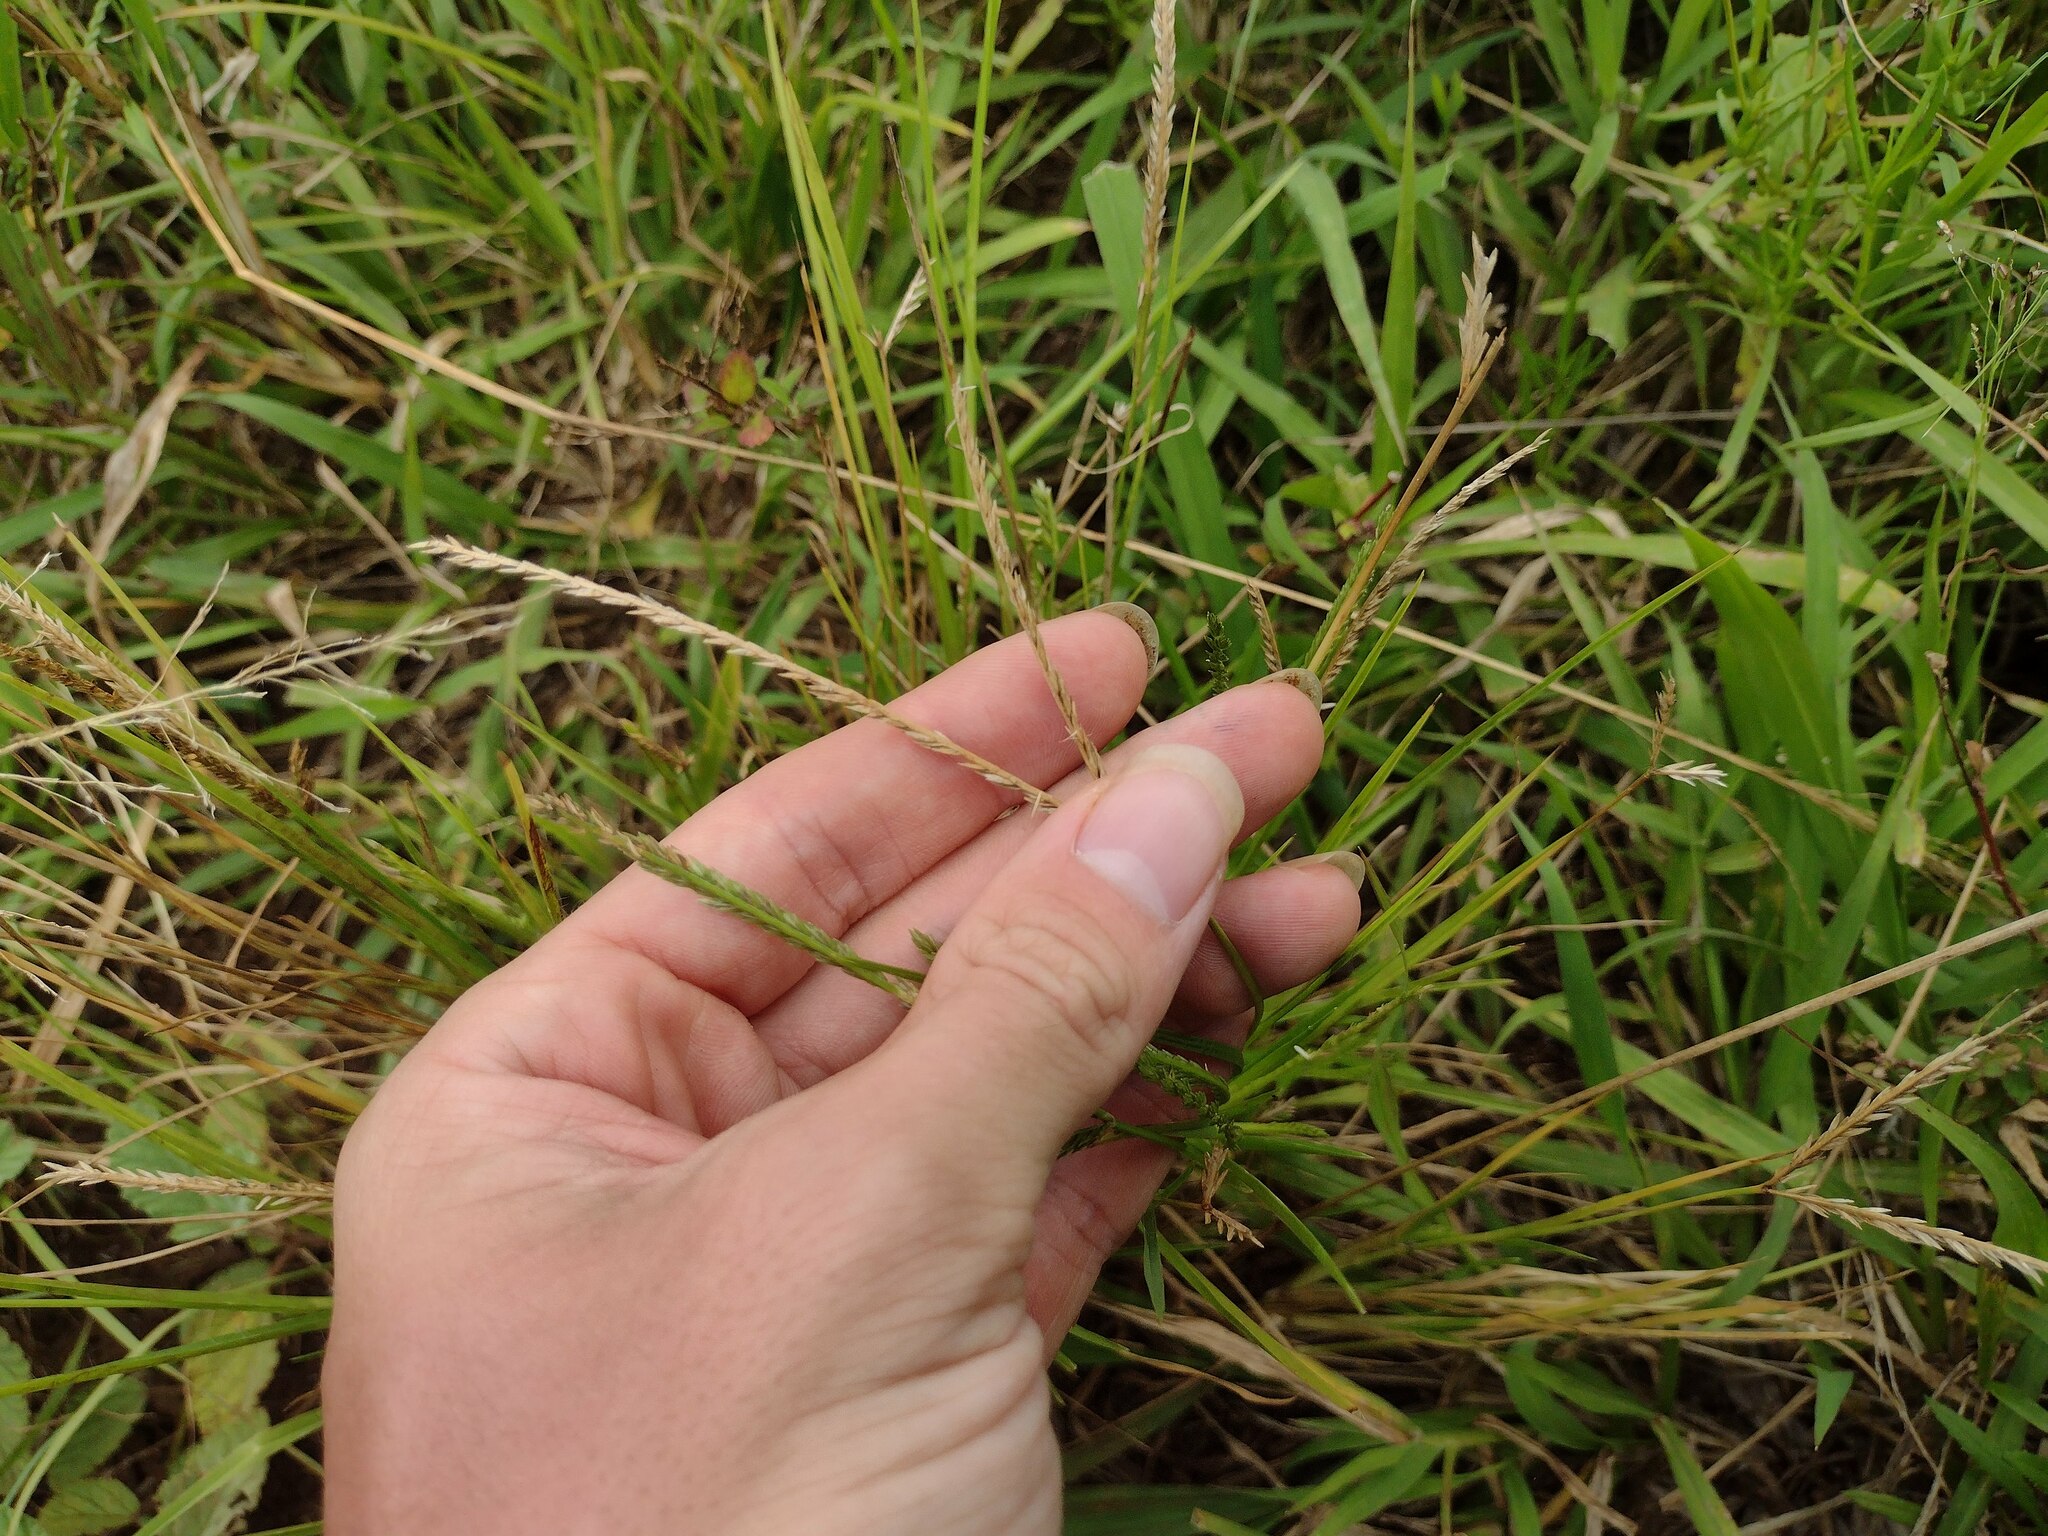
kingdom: Plantae
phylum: Tracheophyta
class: Liliopsida
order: Poales
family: Poaceae
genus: Eleusine
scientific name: Eleusine indica
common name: Yard-grass
